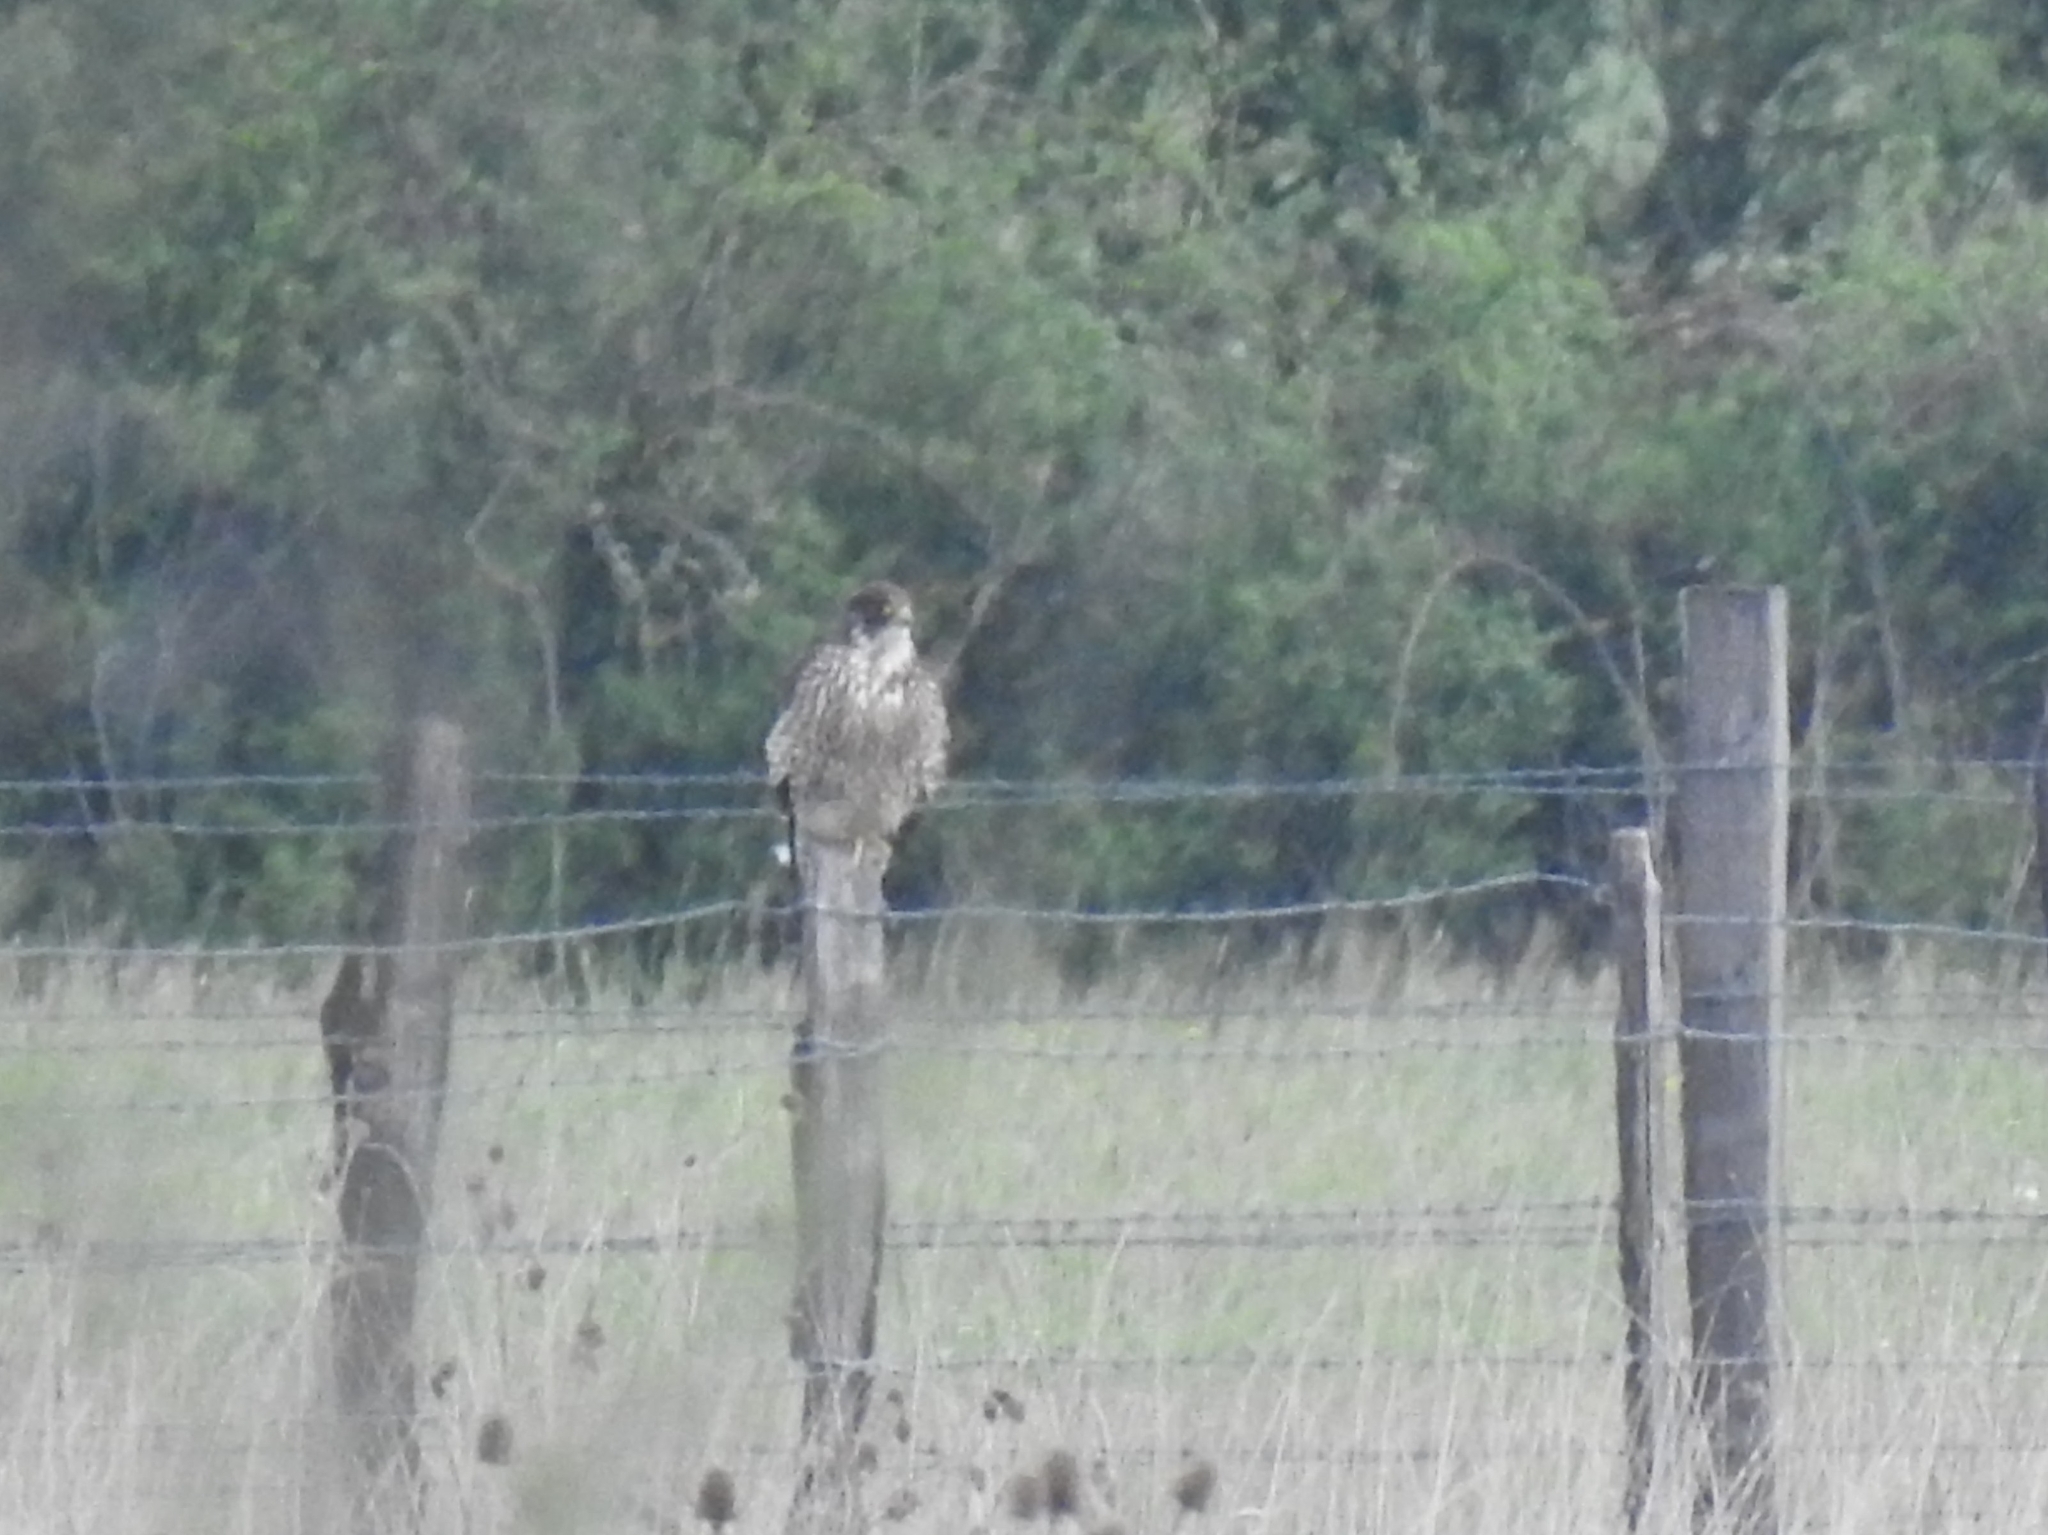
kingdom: Animalia
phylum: Chordata
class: Aves
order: Falconiformes
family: Falconidae
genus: Falco
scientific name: Falco peregrinus
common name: Peregrine falcon
